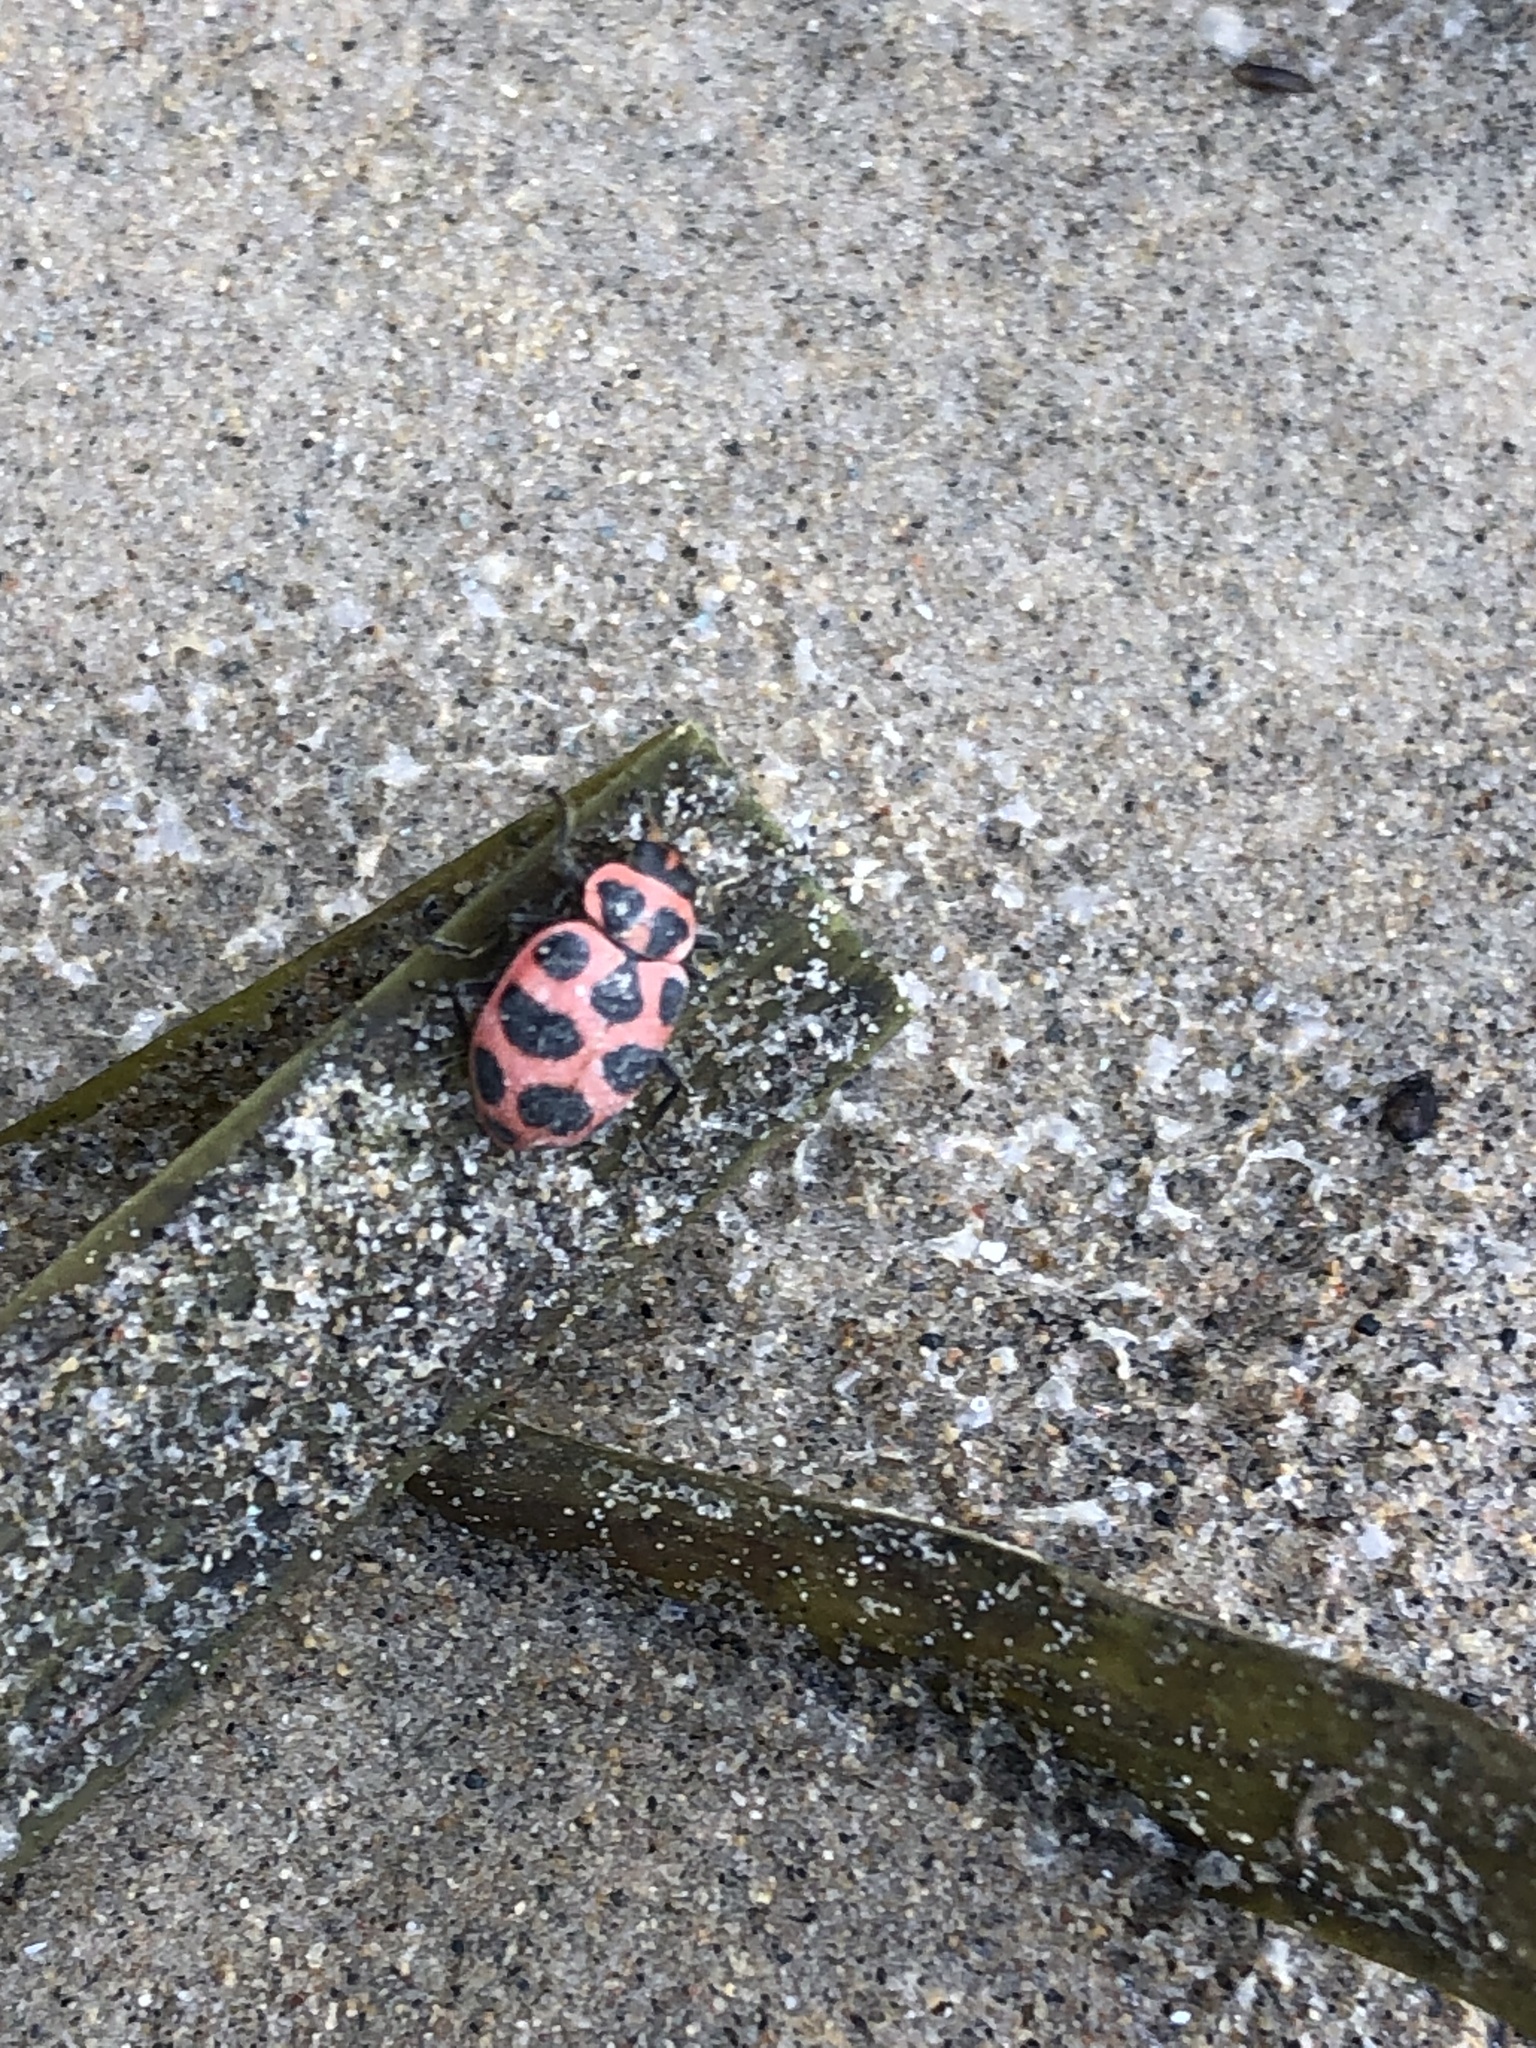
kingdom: Animalia
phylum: Arthropoda
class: Insecta
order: Coleoptera
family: Coccinellidae
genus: Coleomegilla
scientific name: Coleomegilla maculata
